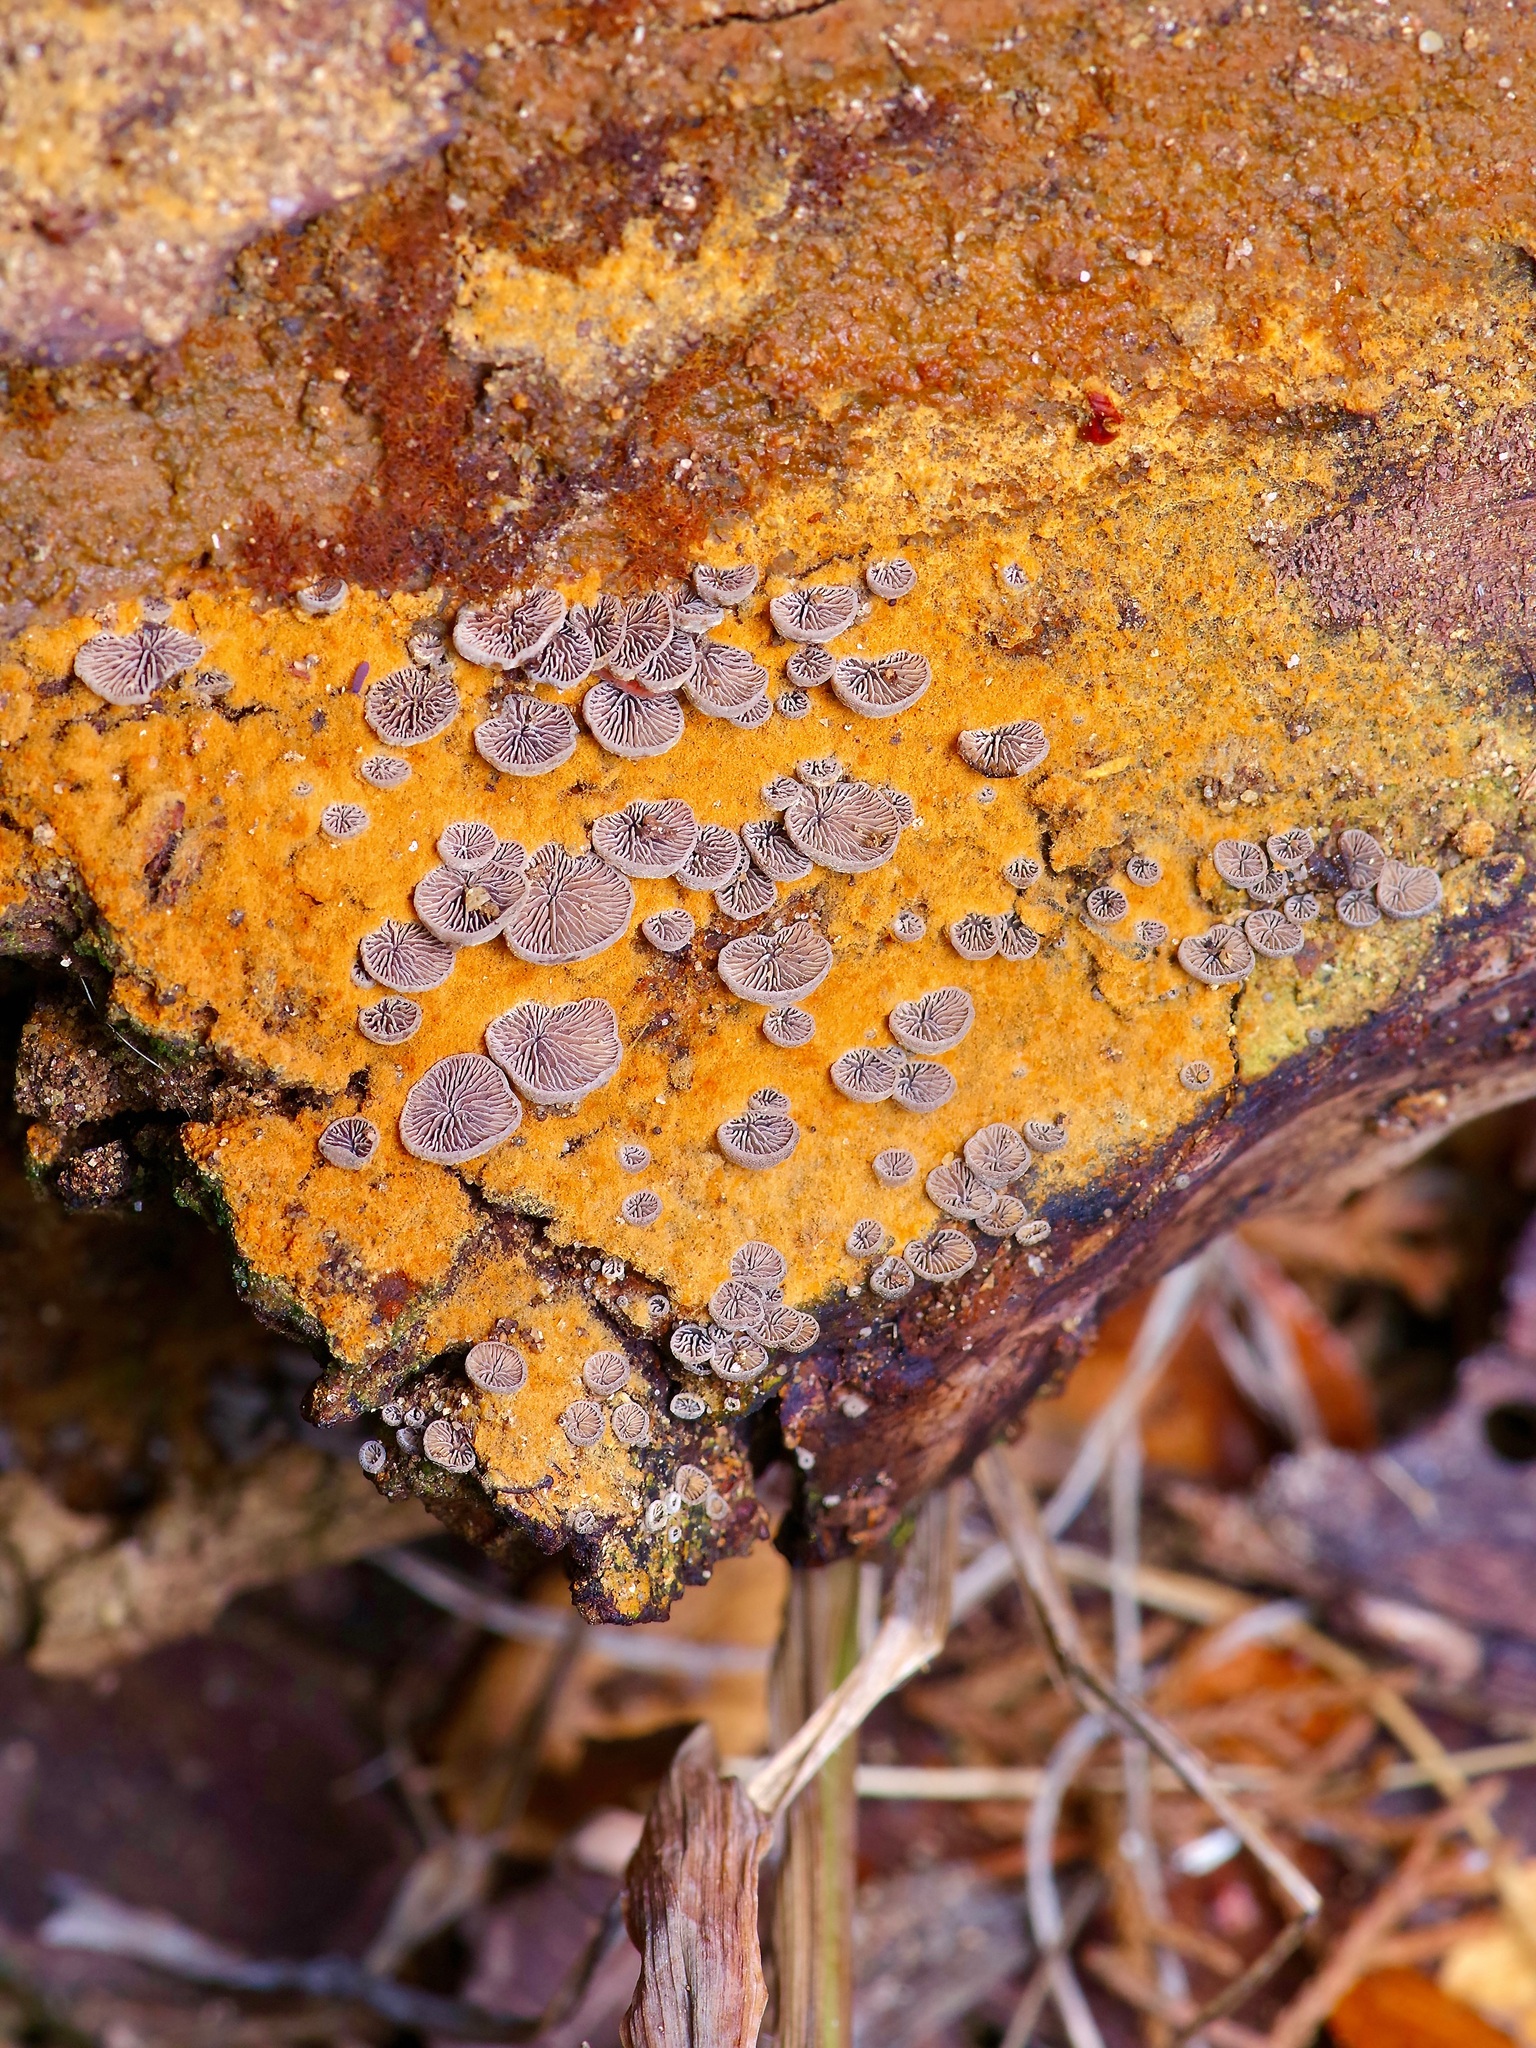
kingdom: Fungi
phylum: Basidiomycota
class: Agaricomycetes
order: Agaricales
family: Pleurotaceae
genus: Resupinatus
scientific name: Resupinatus applicatus
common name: Smoked oysterling
